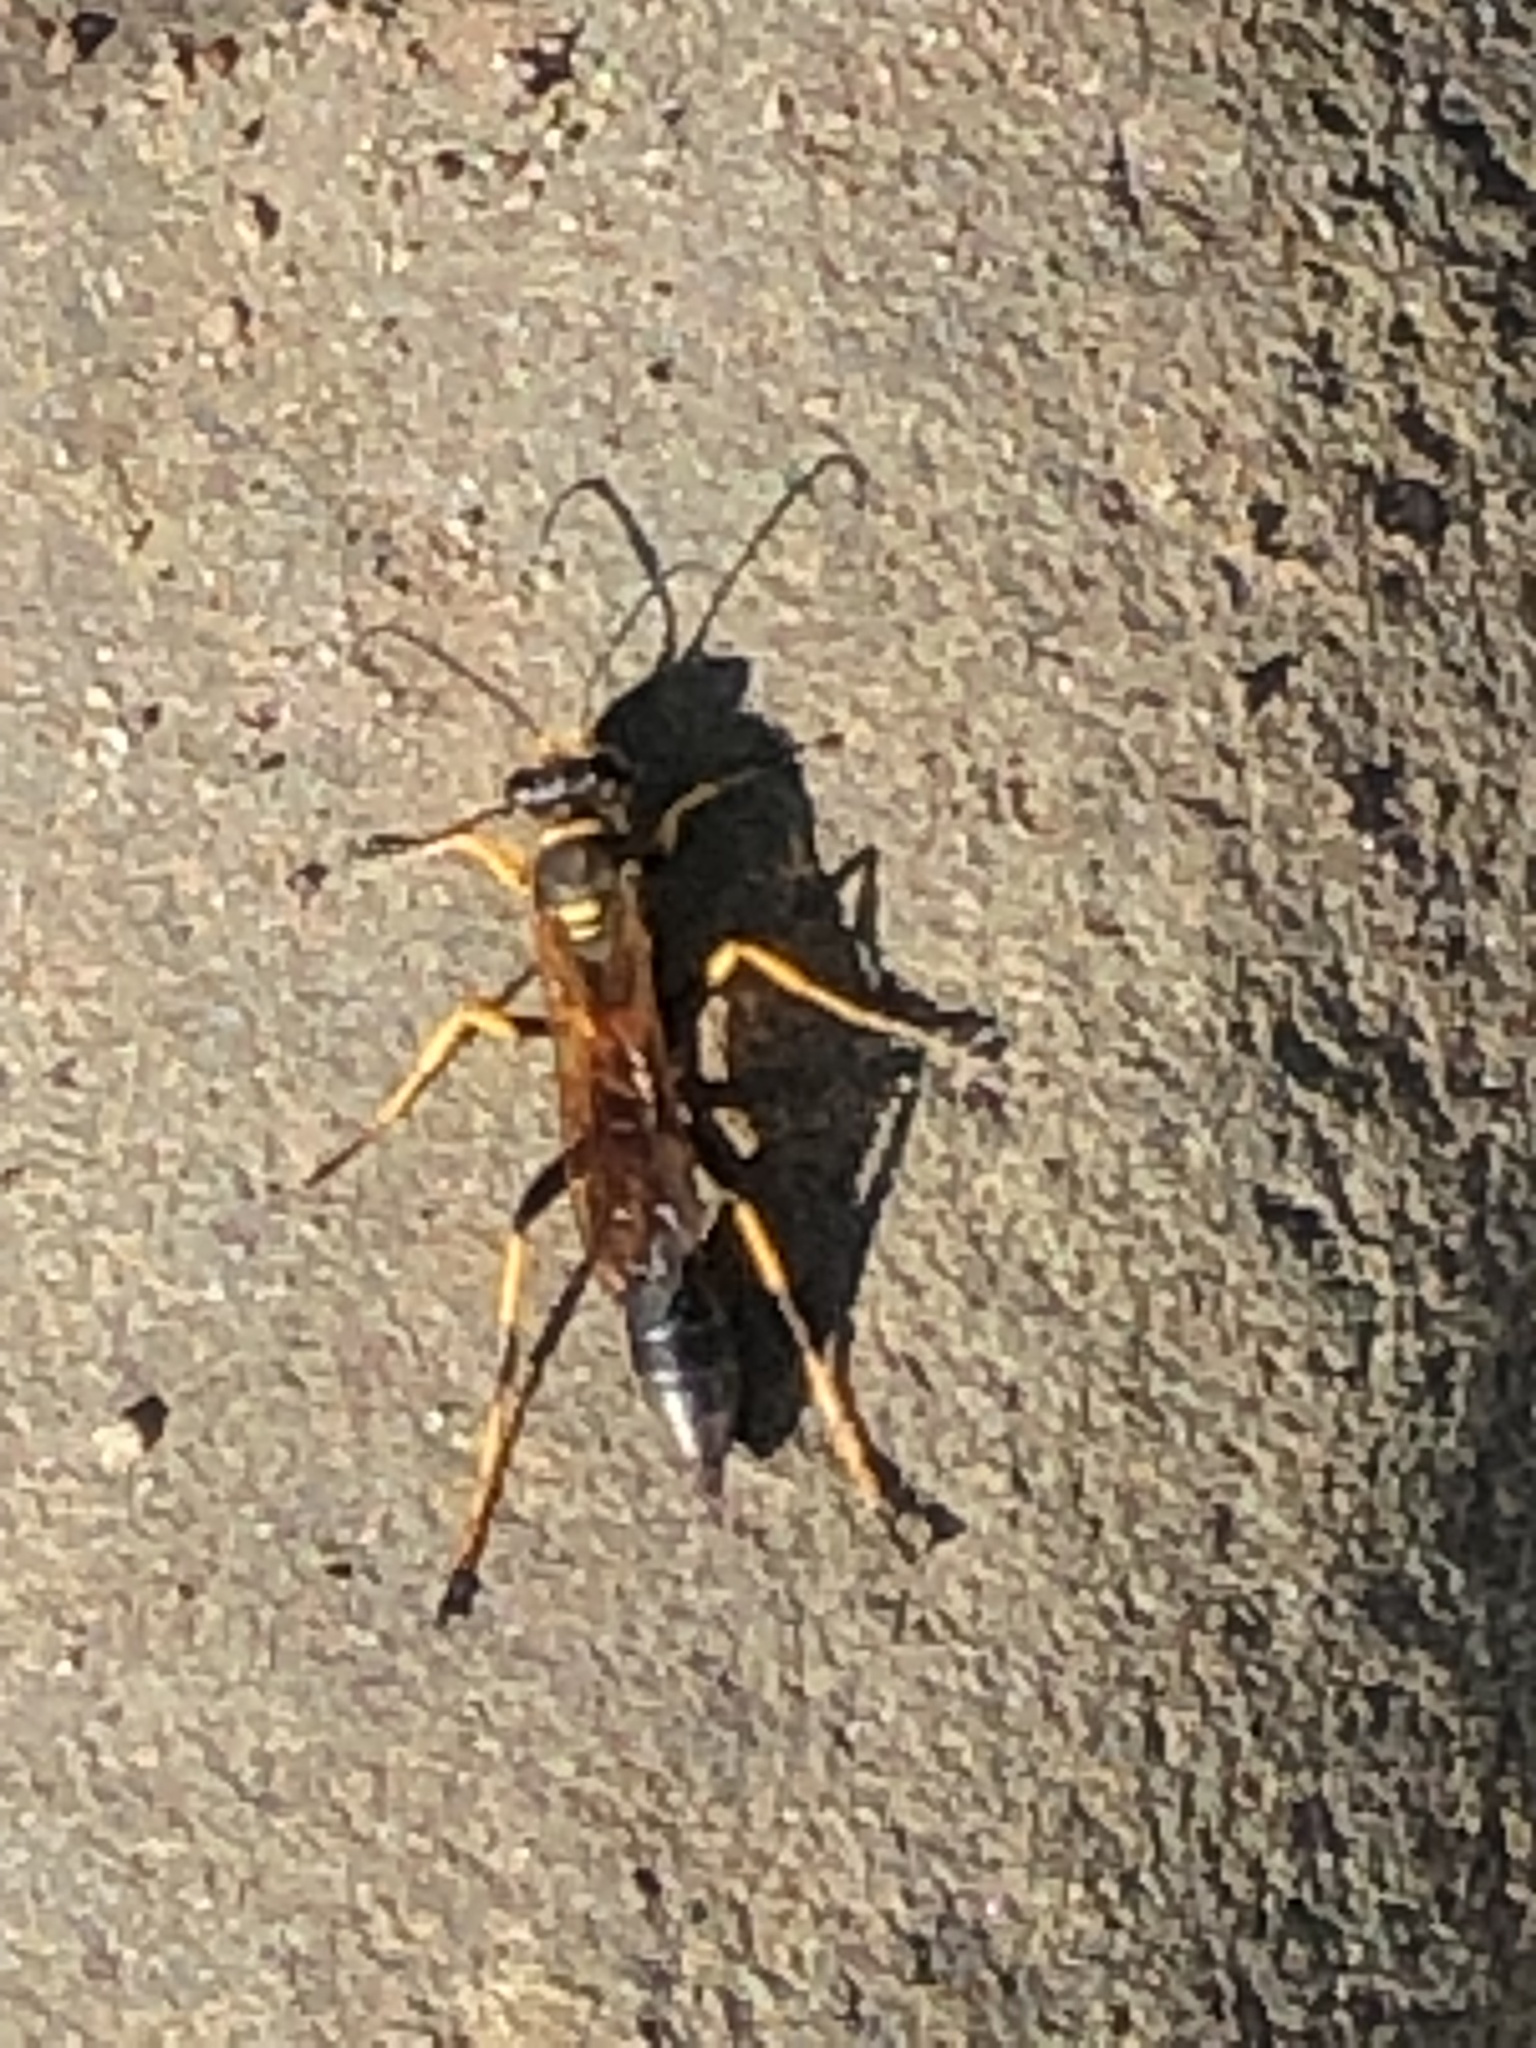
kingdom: Animalia
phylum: Arthropoda
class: Insecta
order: Hymenoptera
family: Sphecidae
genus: Sceliphron
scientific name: Sceliphron caementarium
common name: Mud dauber
